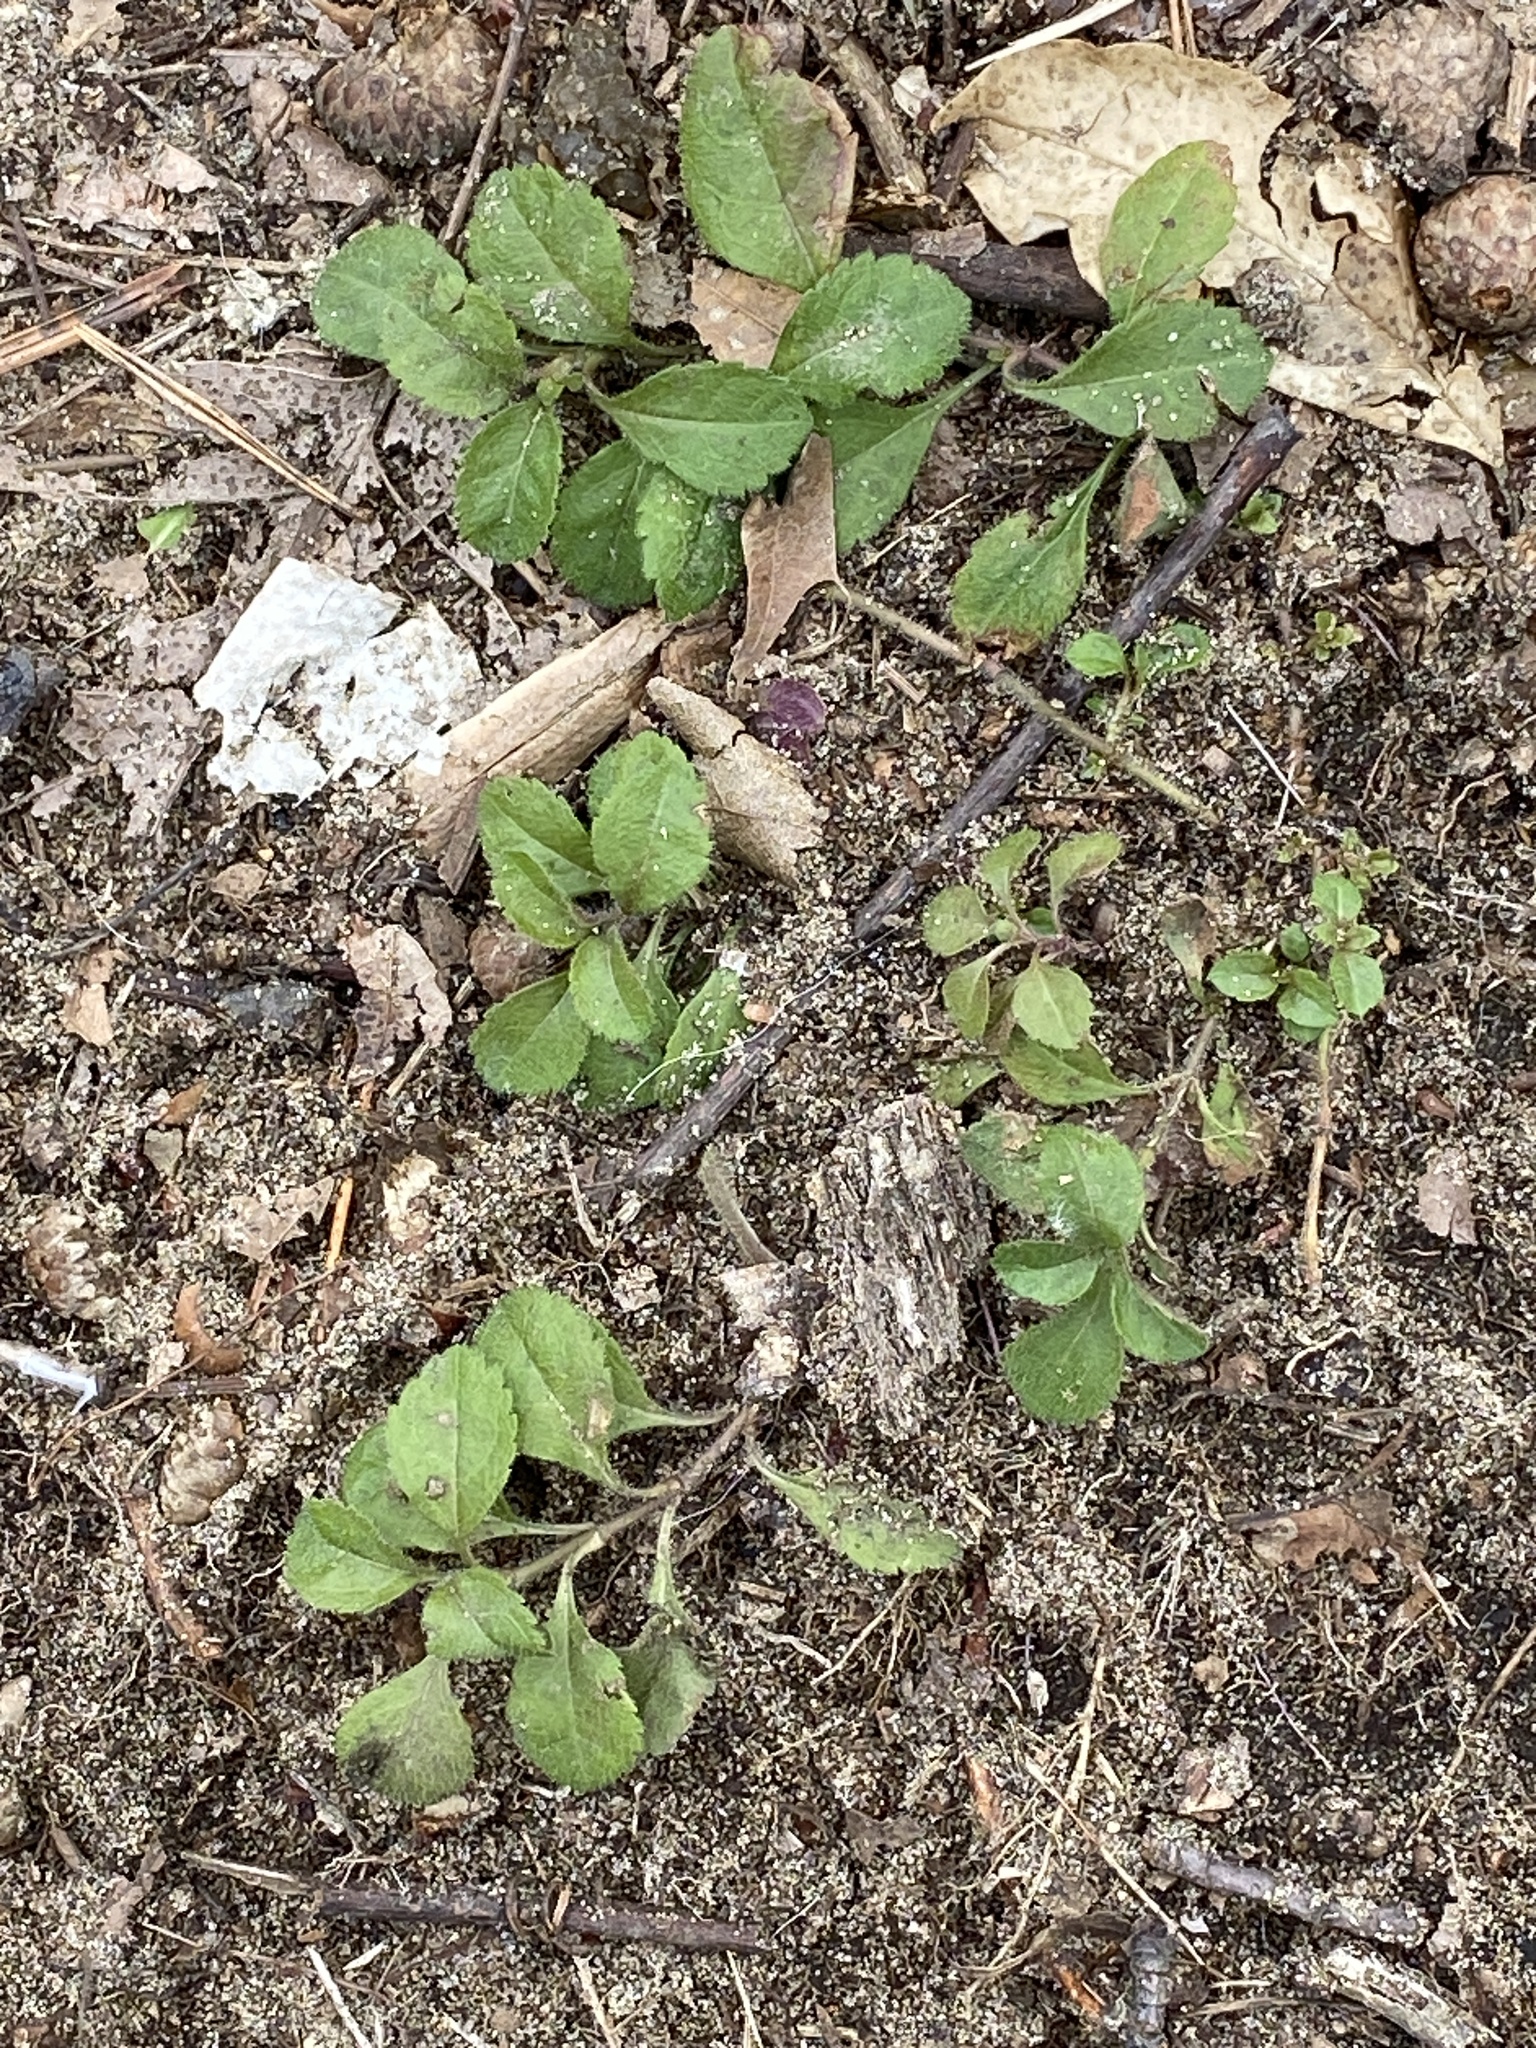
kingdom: Plantae
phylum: Tracheophyta
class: Magnoliopsida
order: Lamiales
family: Plantaginaceae
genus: Veronica
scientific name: Veronica officinalis
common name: Common speedwell
